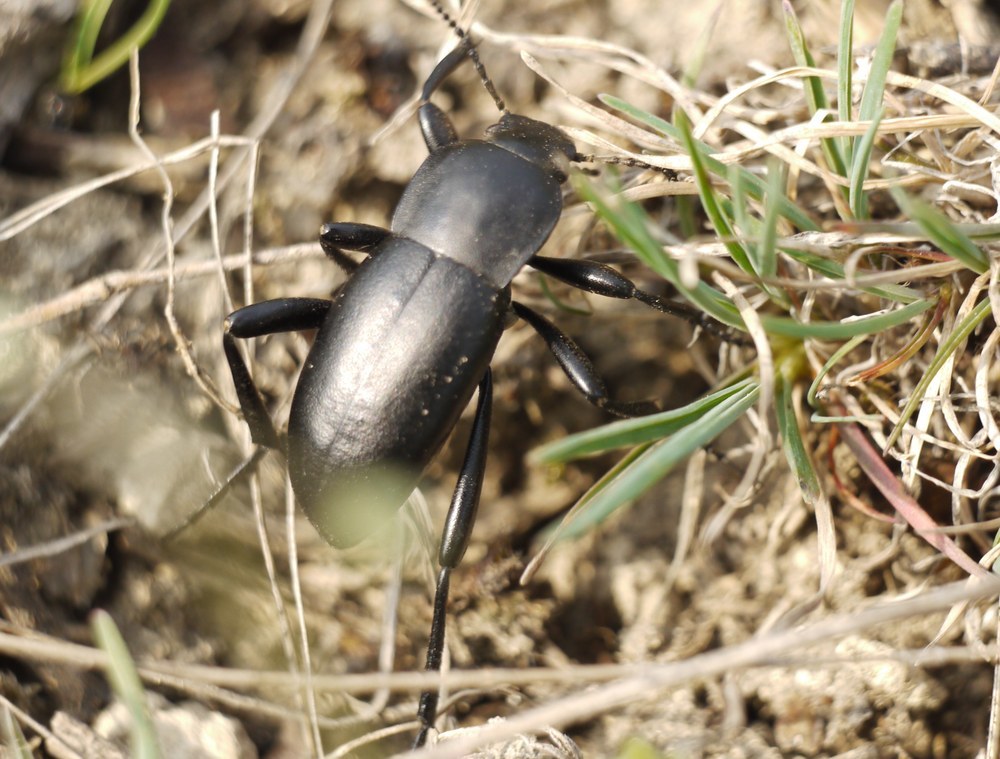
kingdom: Animalia
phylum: Arthropoda
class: Insecta
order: Coleoptera
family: Tenebrionidae
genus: Prosodes
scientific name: Prosodes obtusa
